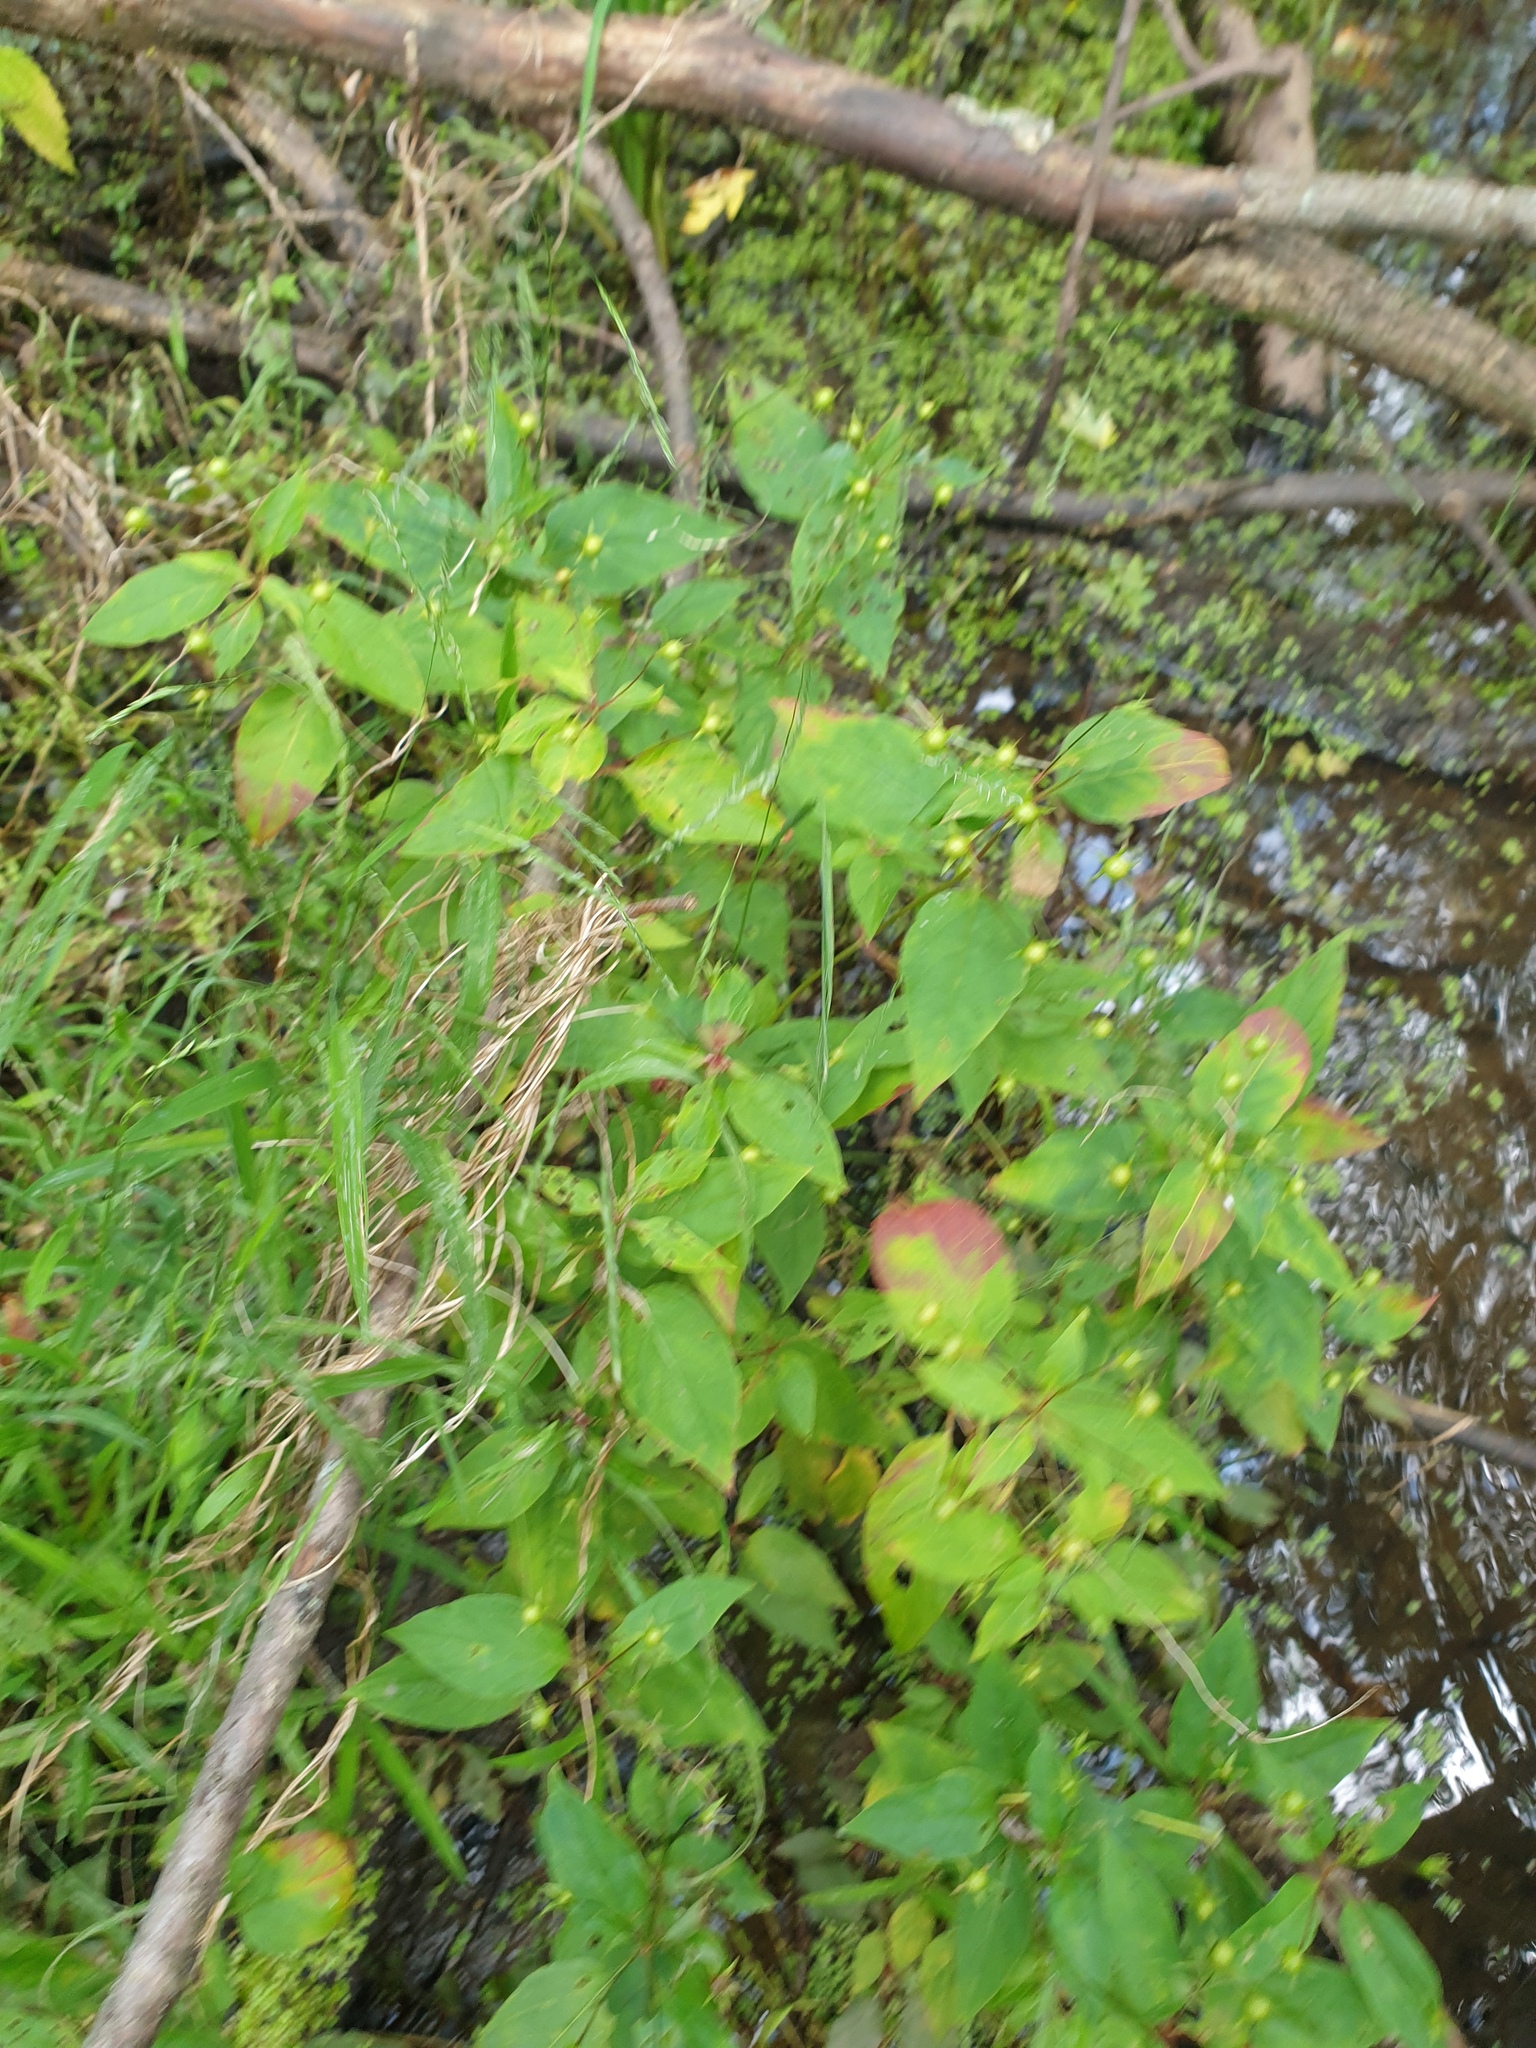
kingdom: Plantae
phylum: Tracheophyta
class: Magnoliopsida
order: Ericales
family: Primulaceae
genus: Lysimachia
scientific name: Lysimachia ciliata
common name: Fringed loosestrife
